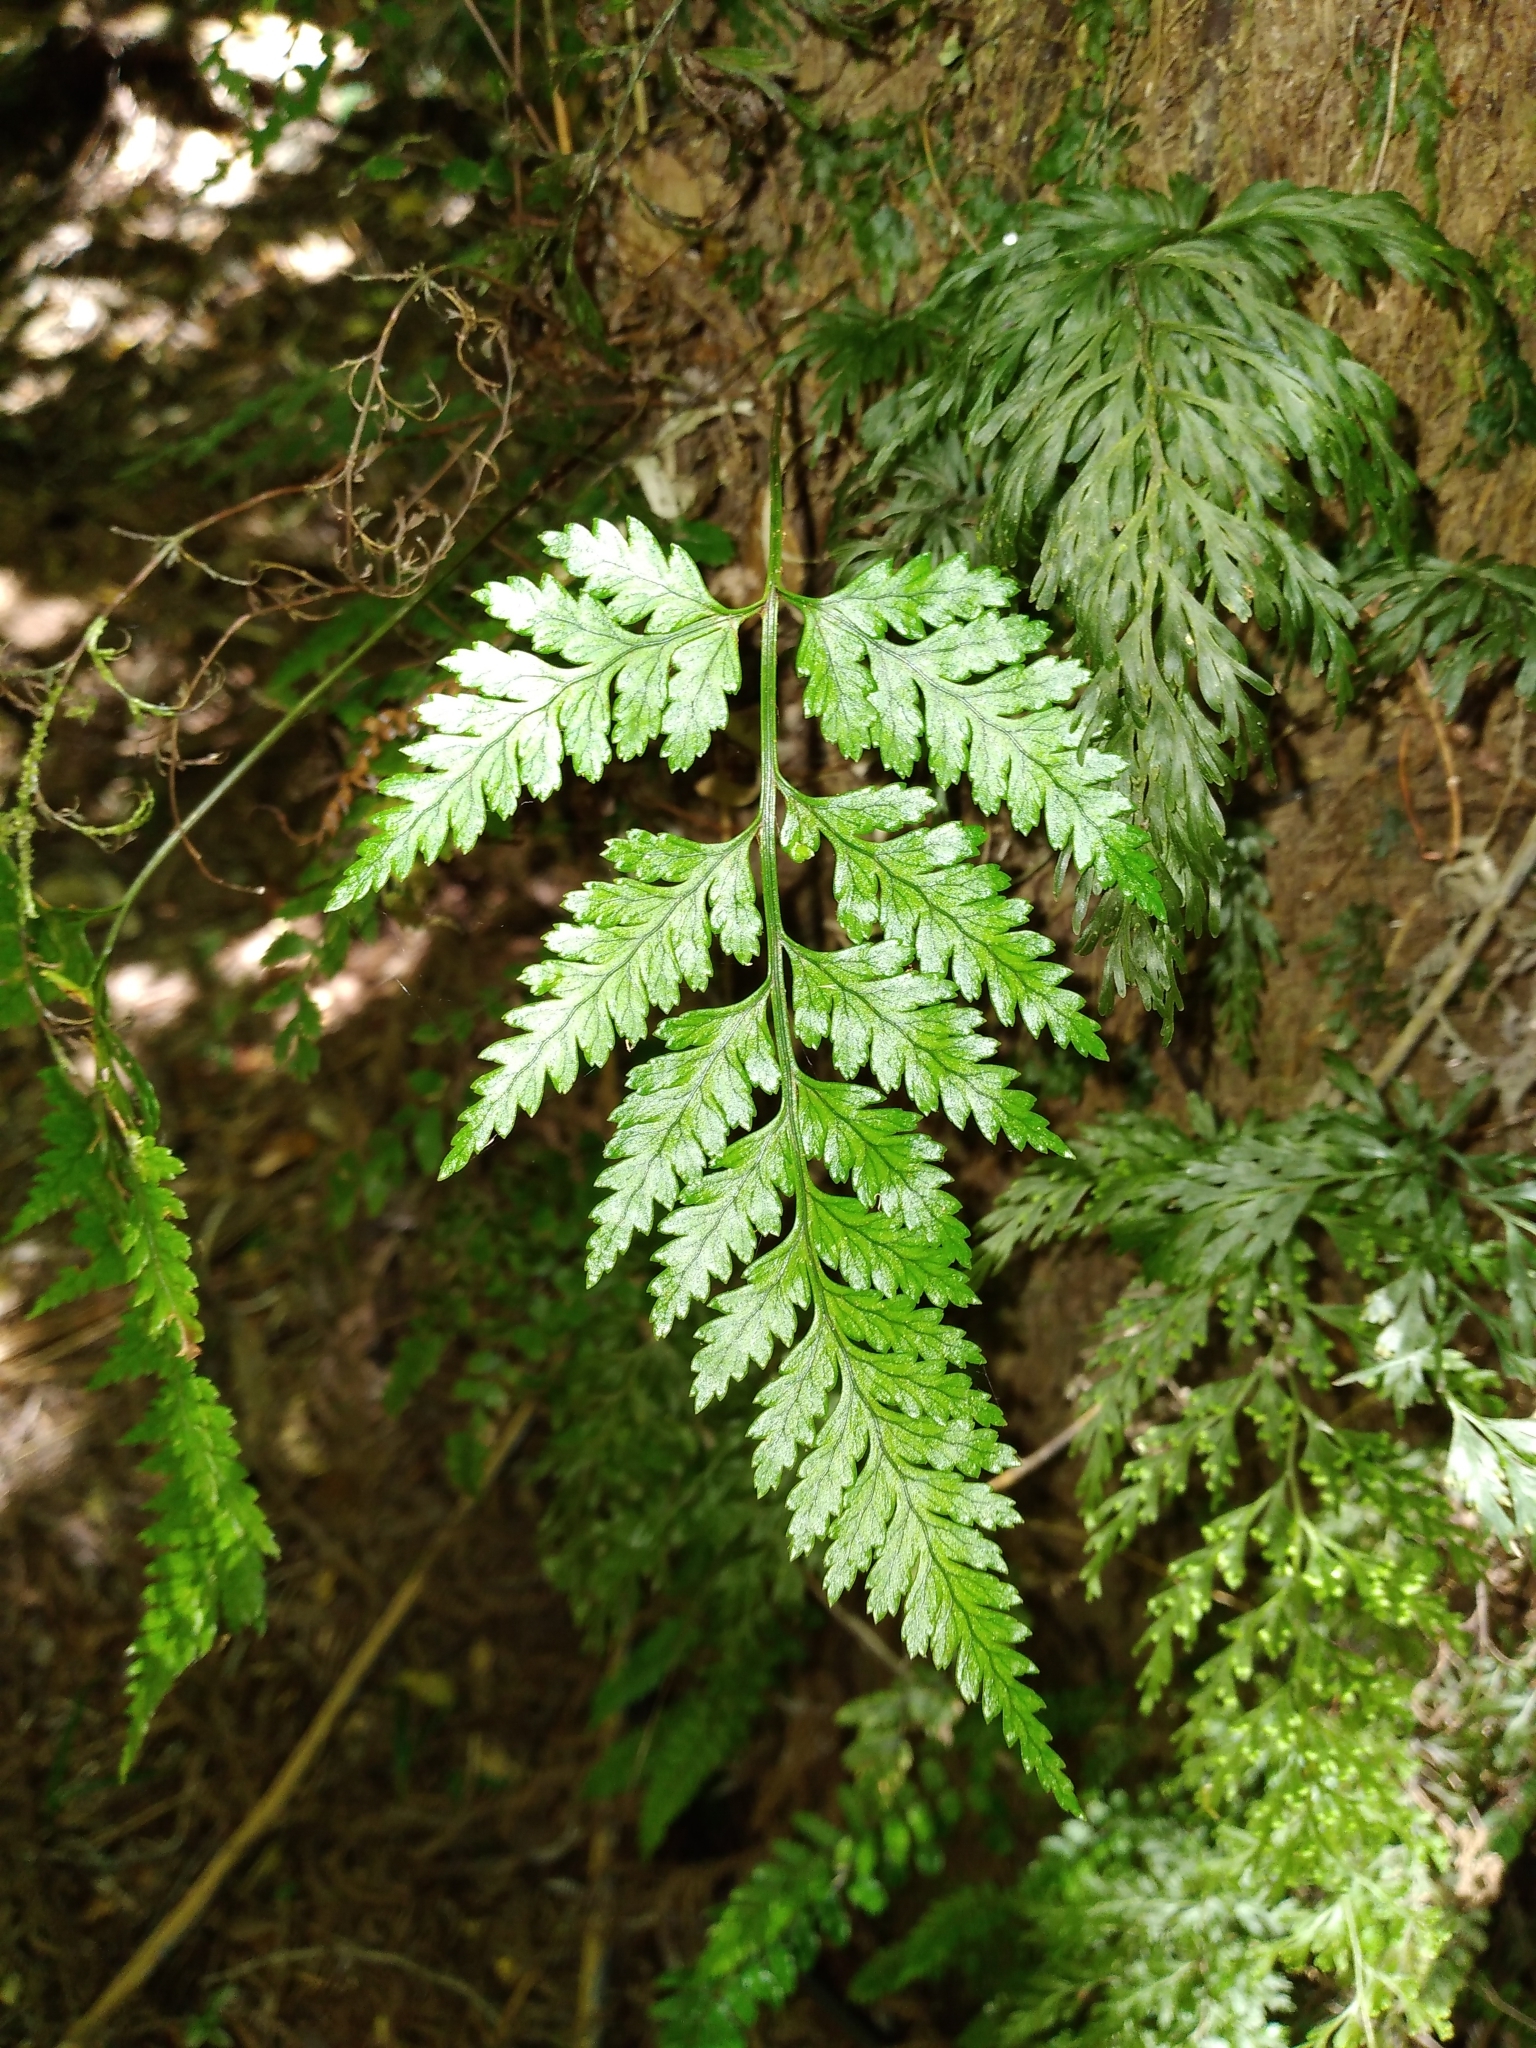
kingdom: Plantae
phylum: Tracheophyta
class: Polypodiopsida
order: Polypodiales
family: Dryopteridaceae
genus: Rumohra
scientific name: Rumohra adiantiformis
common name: Leather fern
